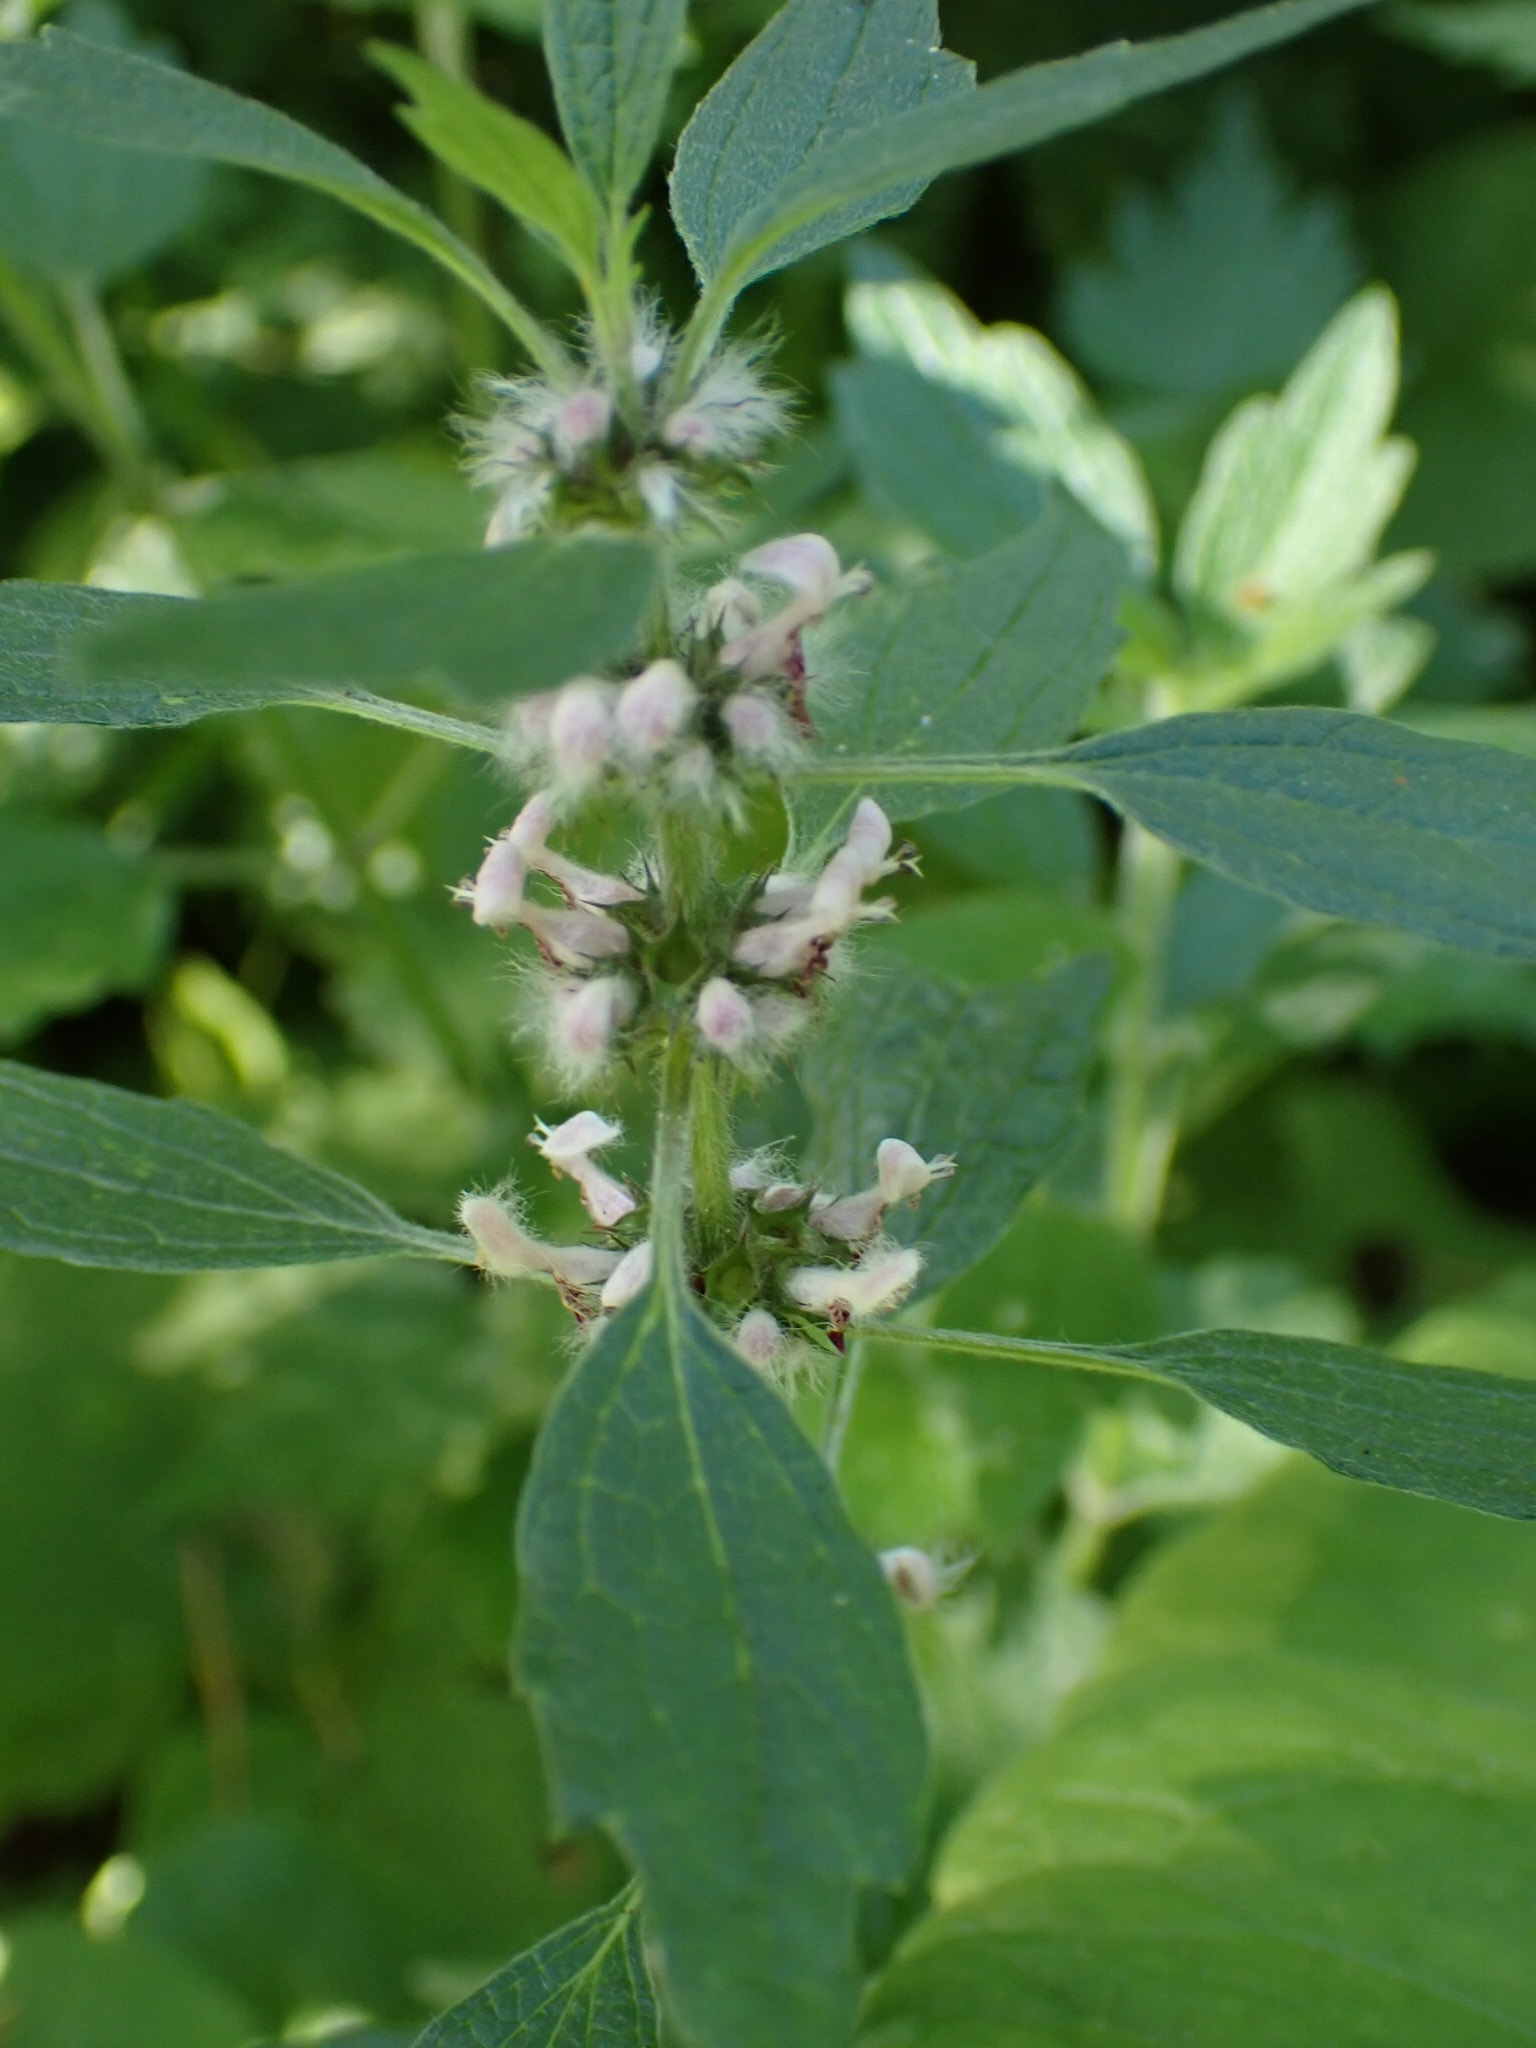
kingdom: Plantae
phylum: Tracheophyta
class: Magnoliopsida
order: Lamiales
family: Lamiaceae
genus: Leonurus
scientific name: Leonurus quinquelobatus
